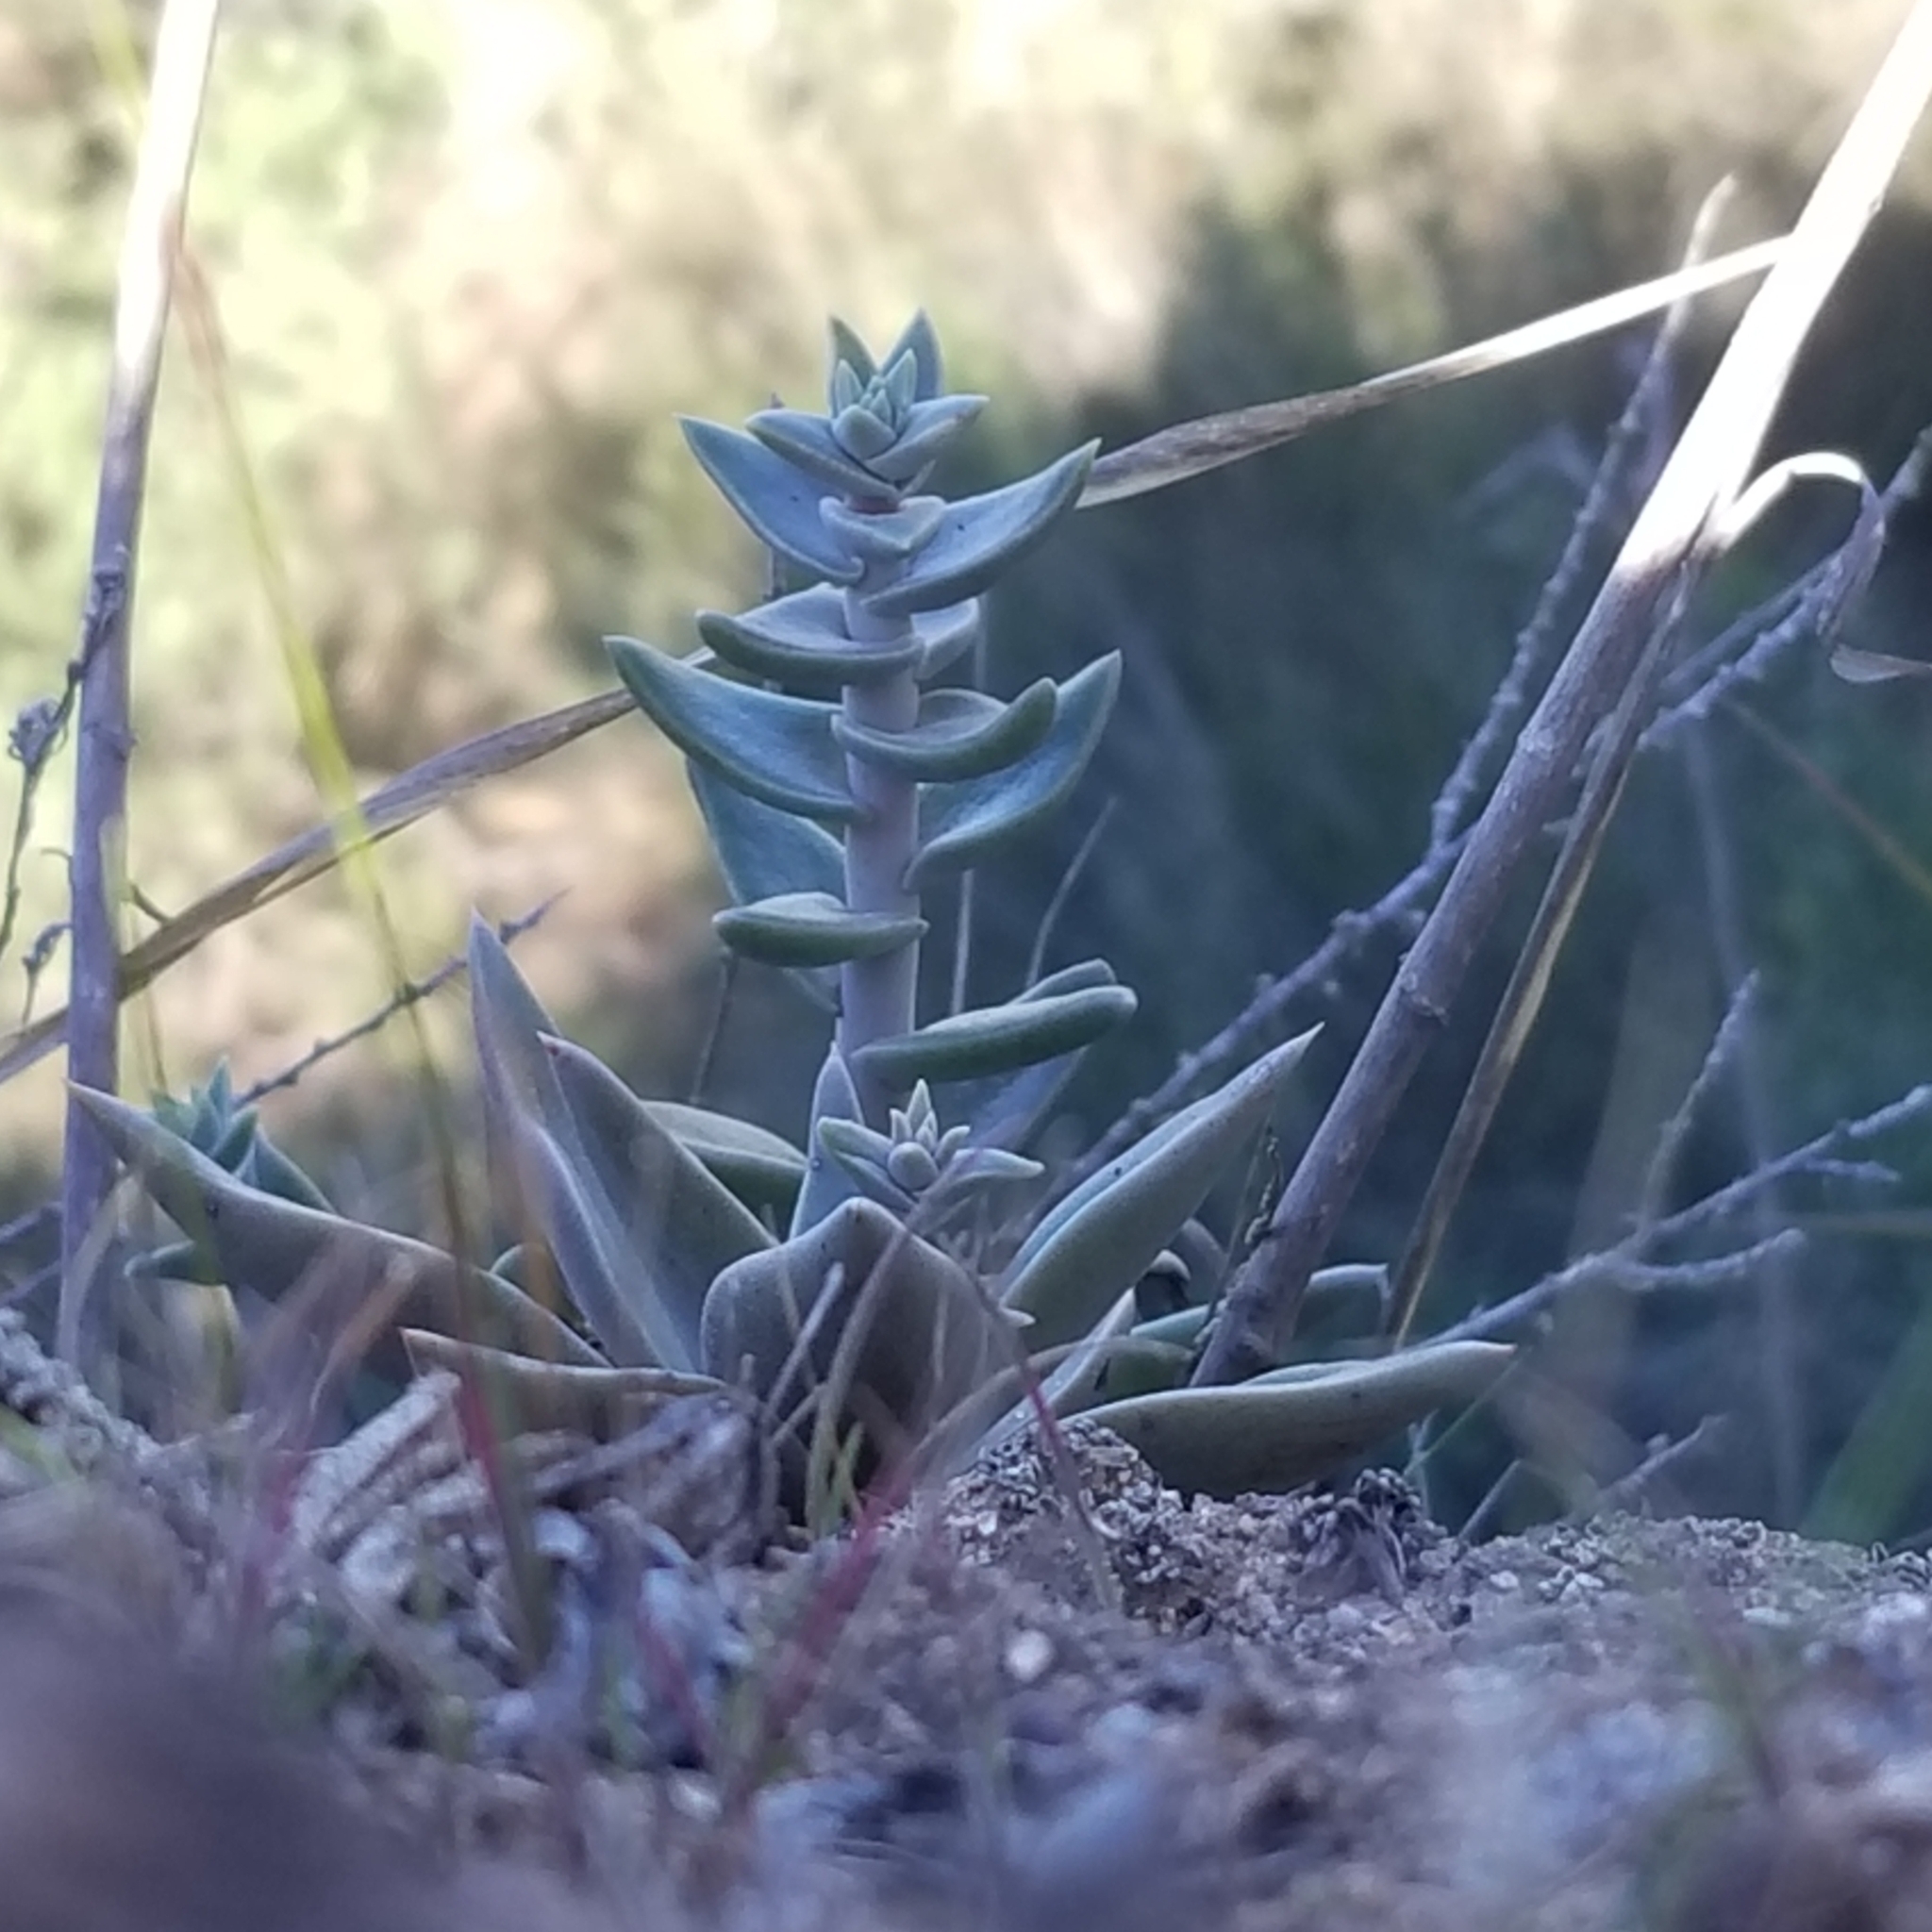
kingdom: Plantae
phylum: Tracheophyta
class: Magnoliopsida
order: Saxifragales
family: Crassulaceae
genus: Dudleya
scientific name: Dudleya lanceolata
